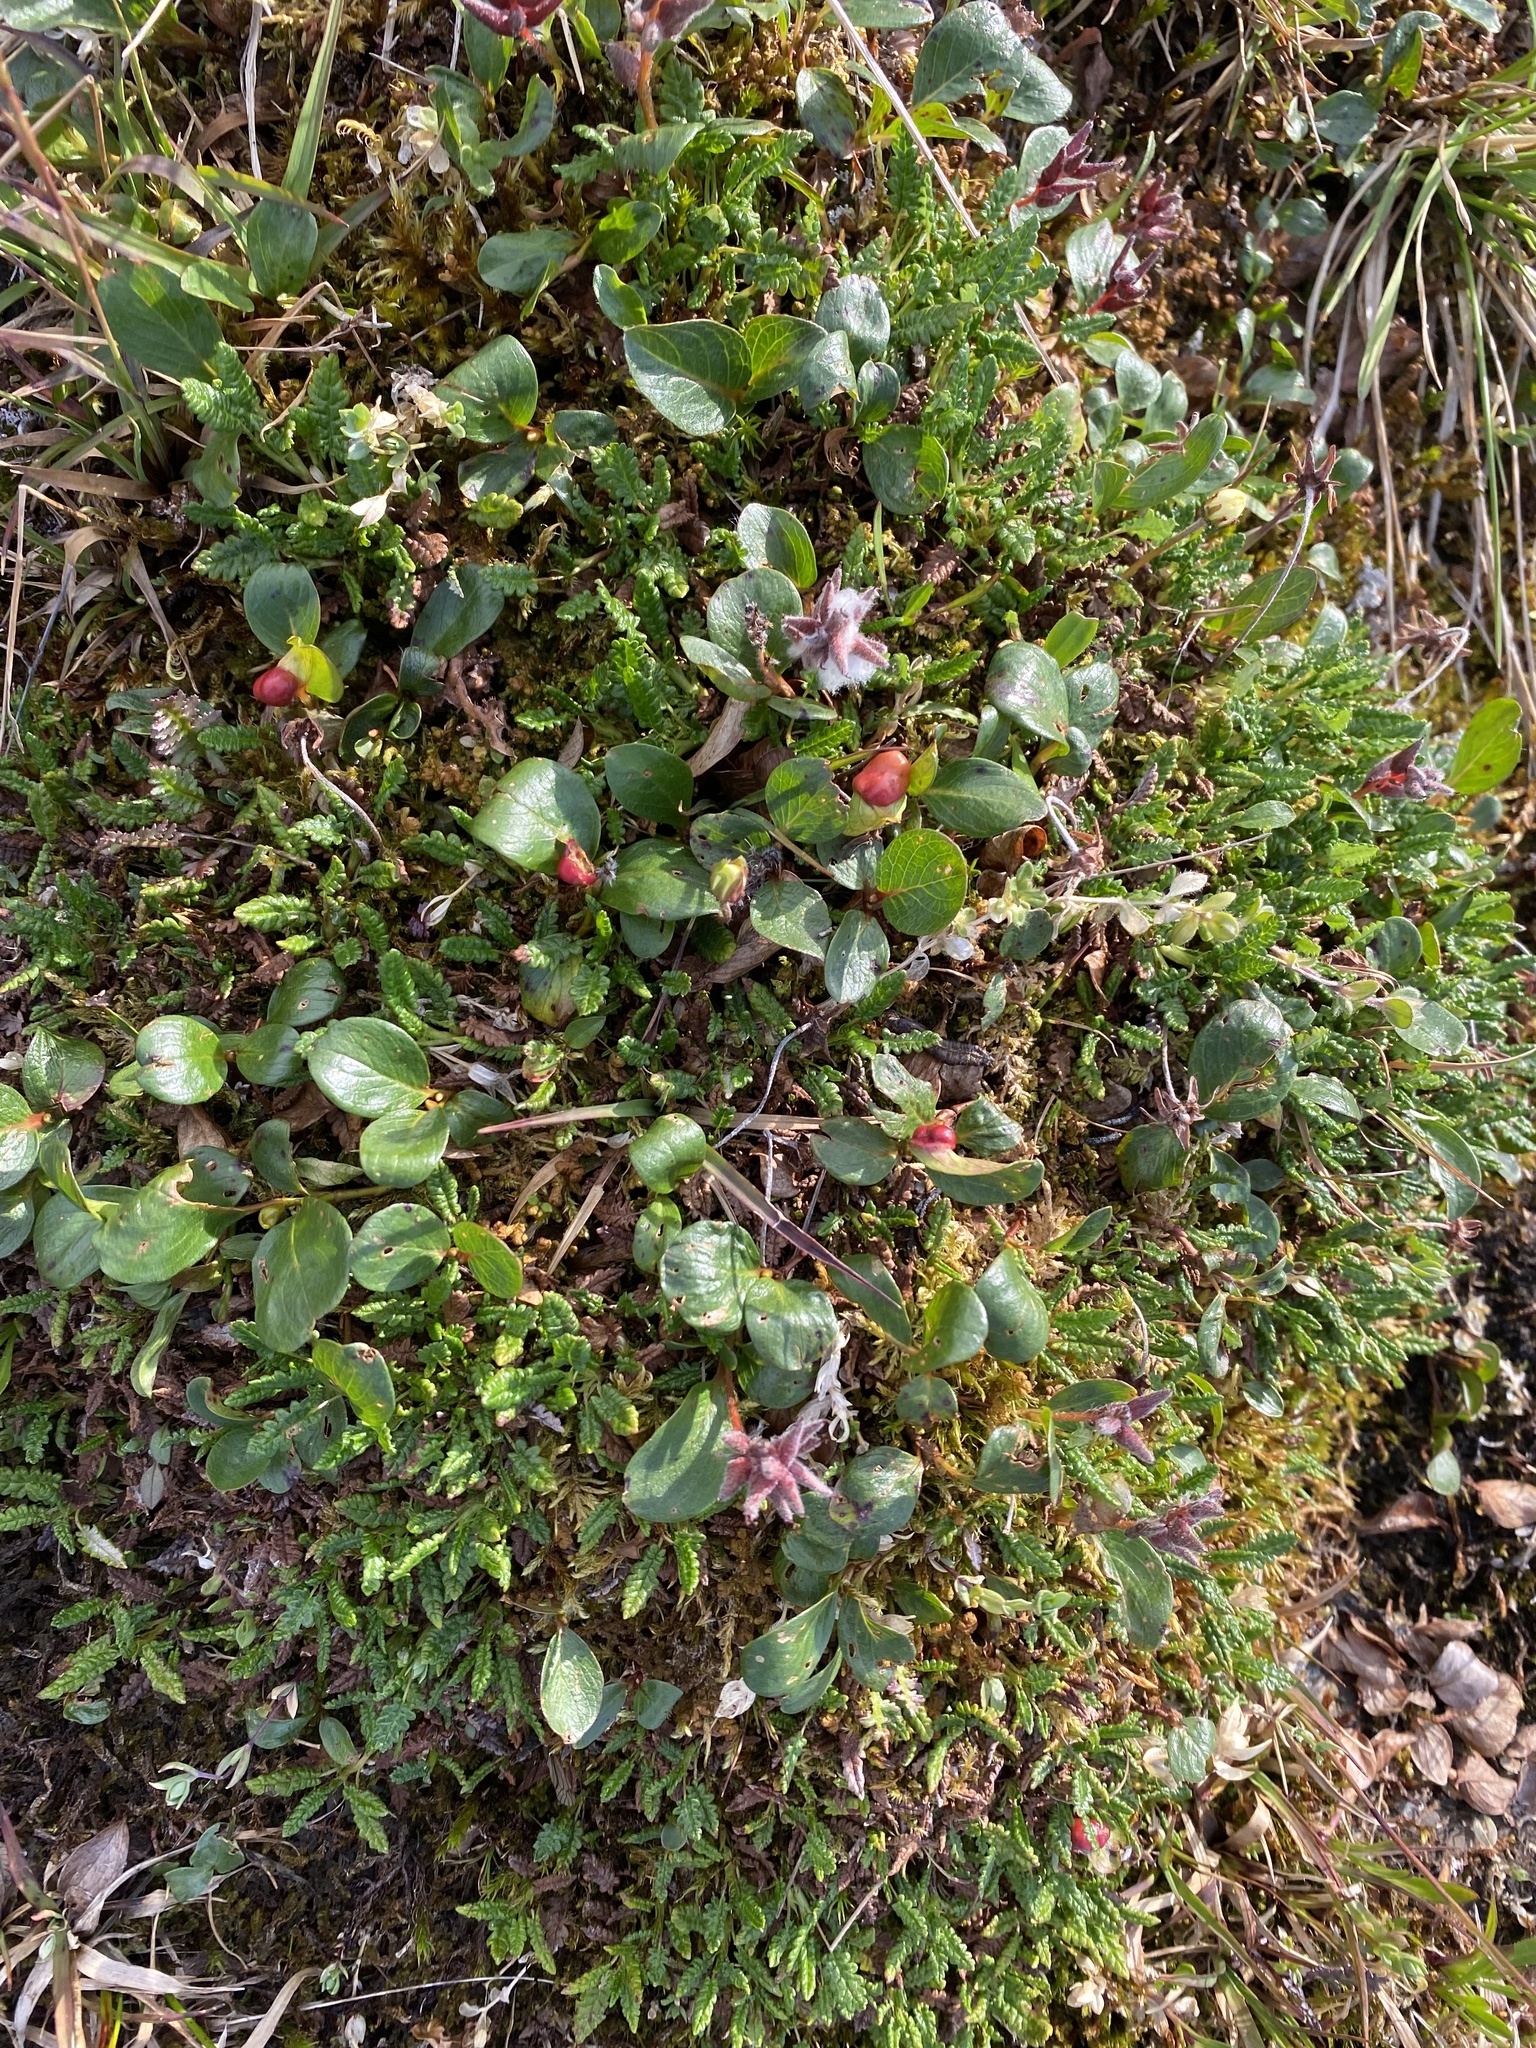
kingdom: Plantae
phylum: Tracheophyta
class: Magnoliopsida
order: Malpighiales
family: Salicaceae
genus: Salix
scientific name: Salix polaris
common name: Polar willow
